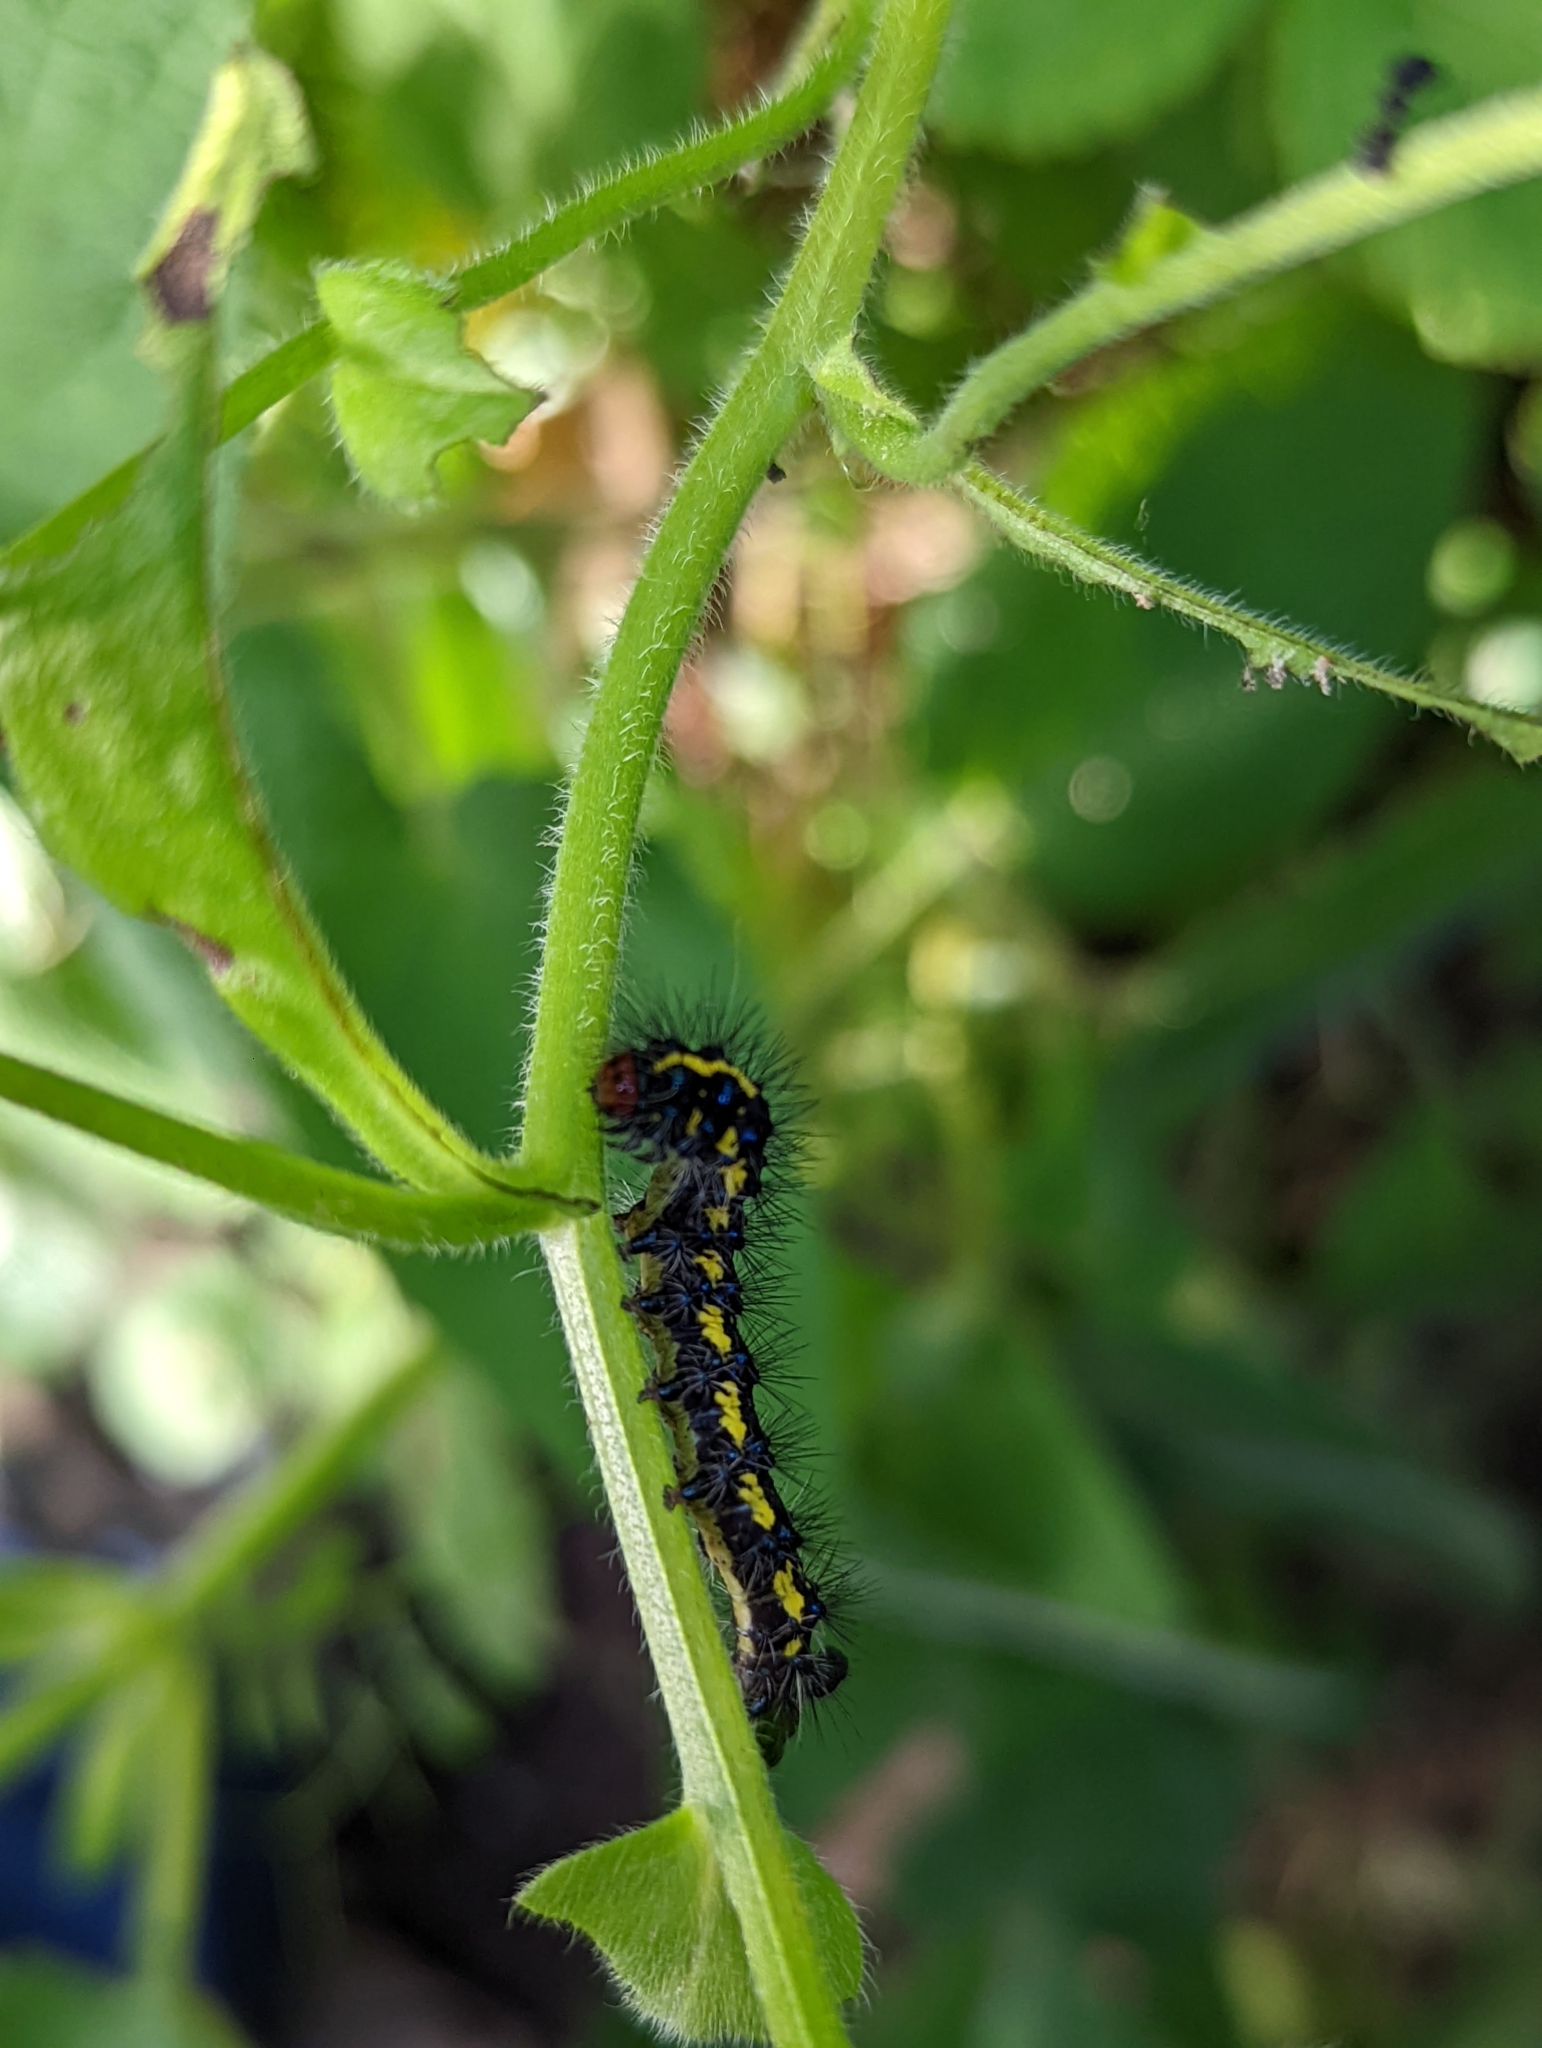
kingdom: Animalia
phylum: Arthropoda
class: Insecta
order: Lepidoptera
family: Erebidae
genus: Gnophaela
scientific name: Gnophaela latipennis
